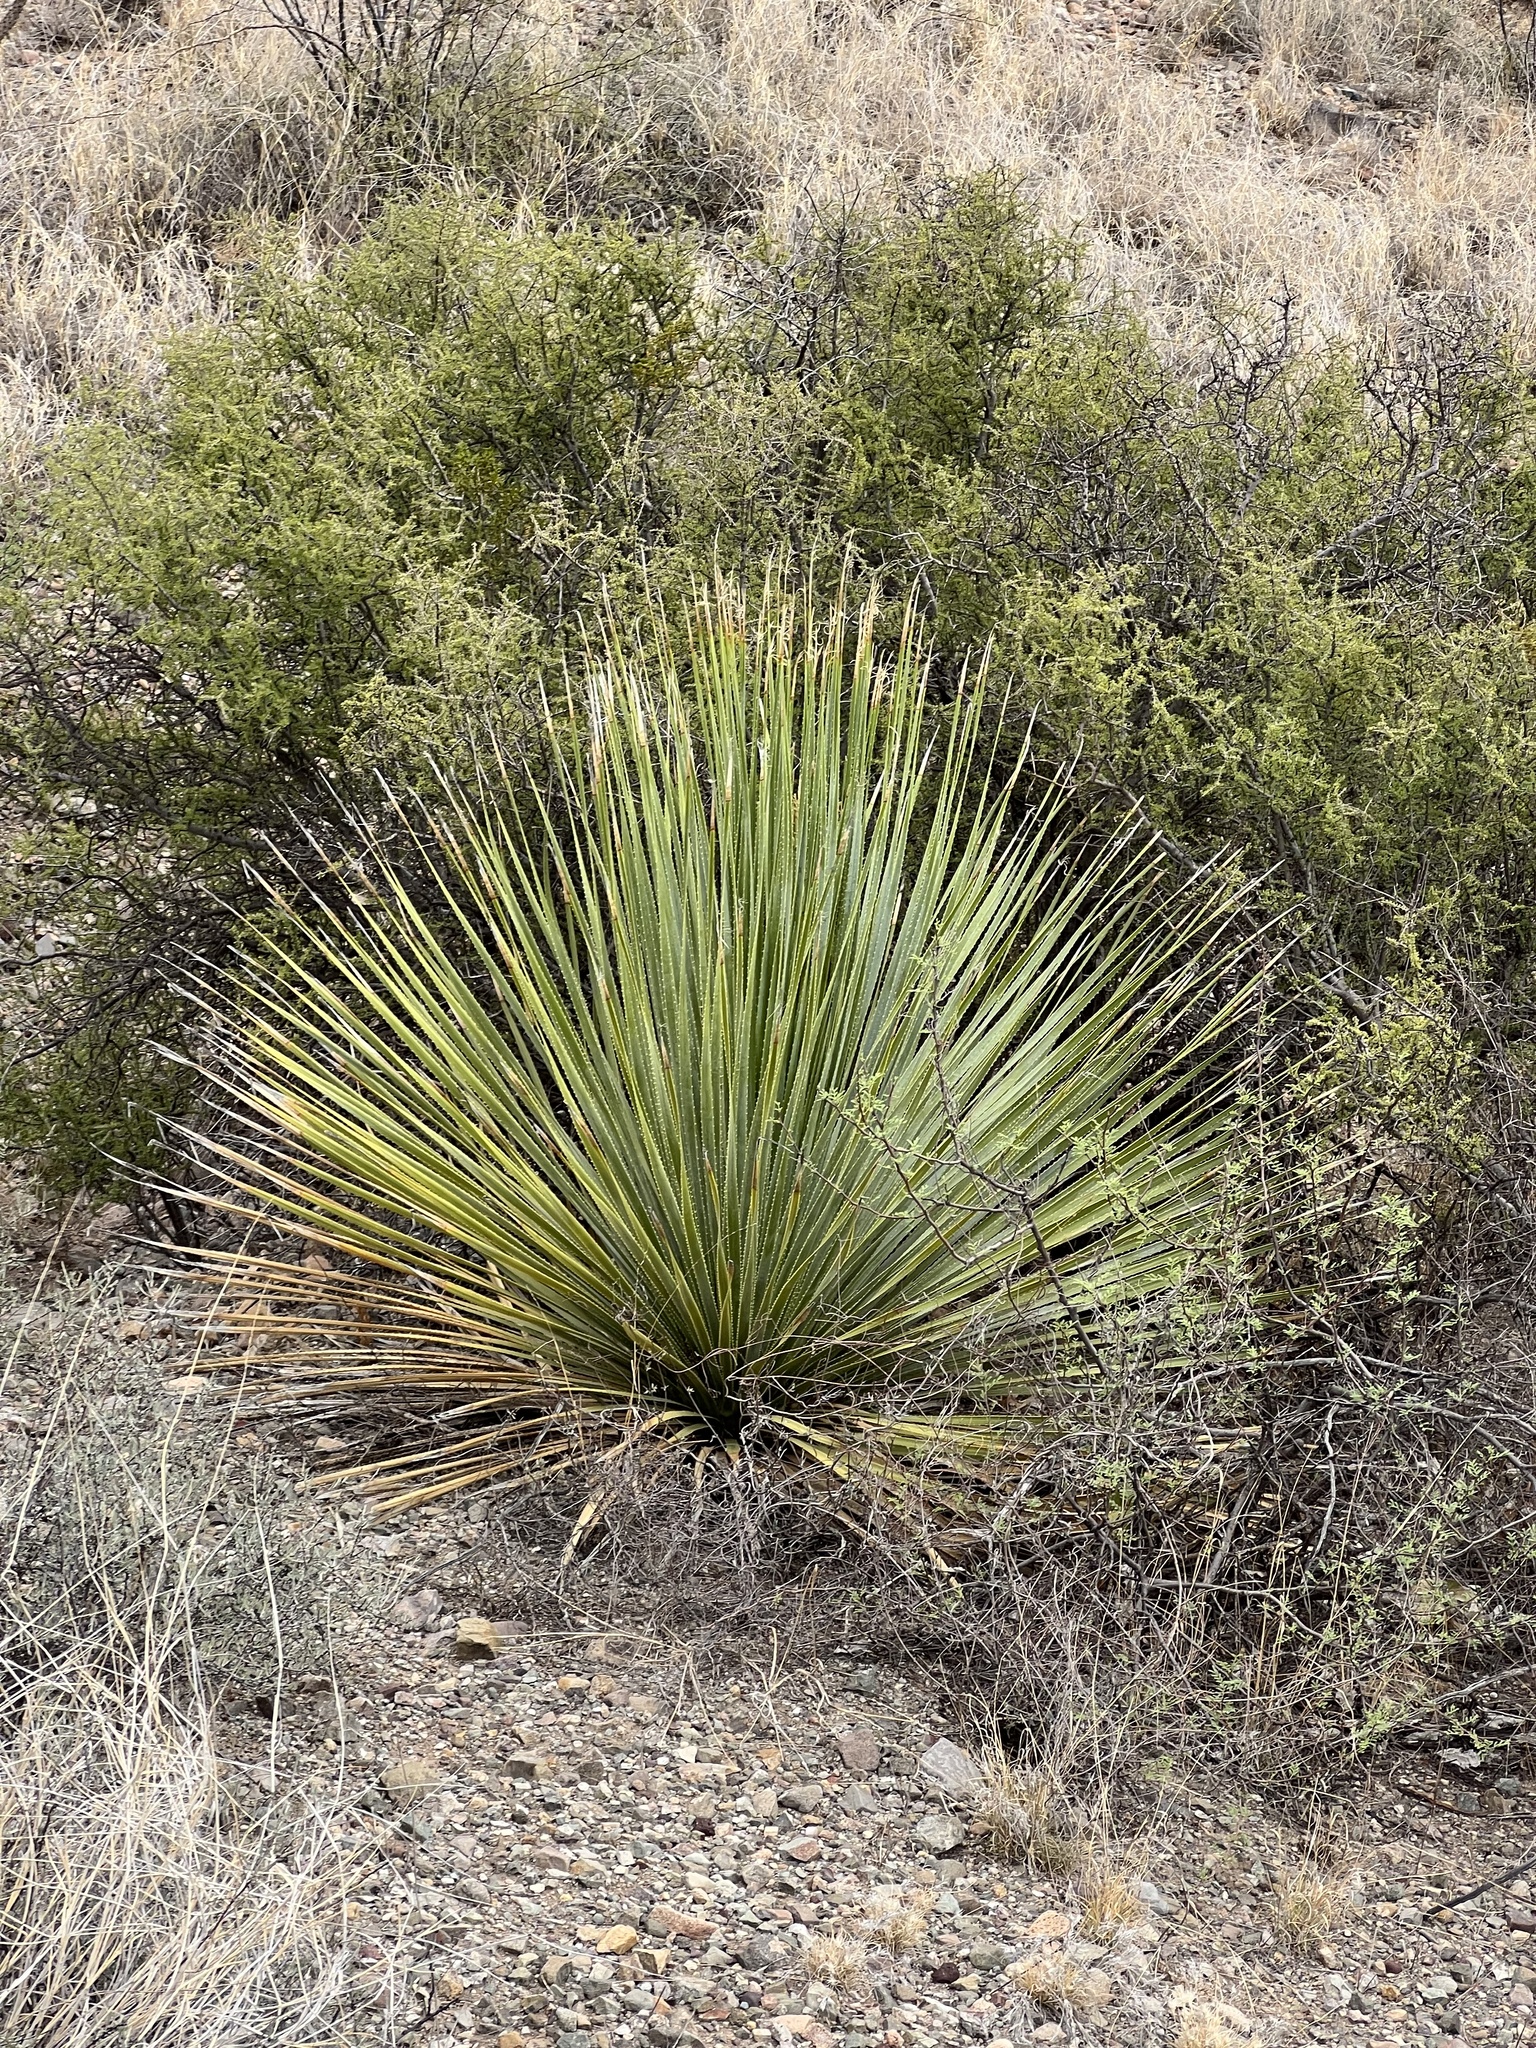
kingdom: Plantae
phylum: Tracheophyta
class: Liliopsida
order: Asparagales
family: Asparagaceae
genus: Dasylirion
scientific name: Dasylirion wheeleri
